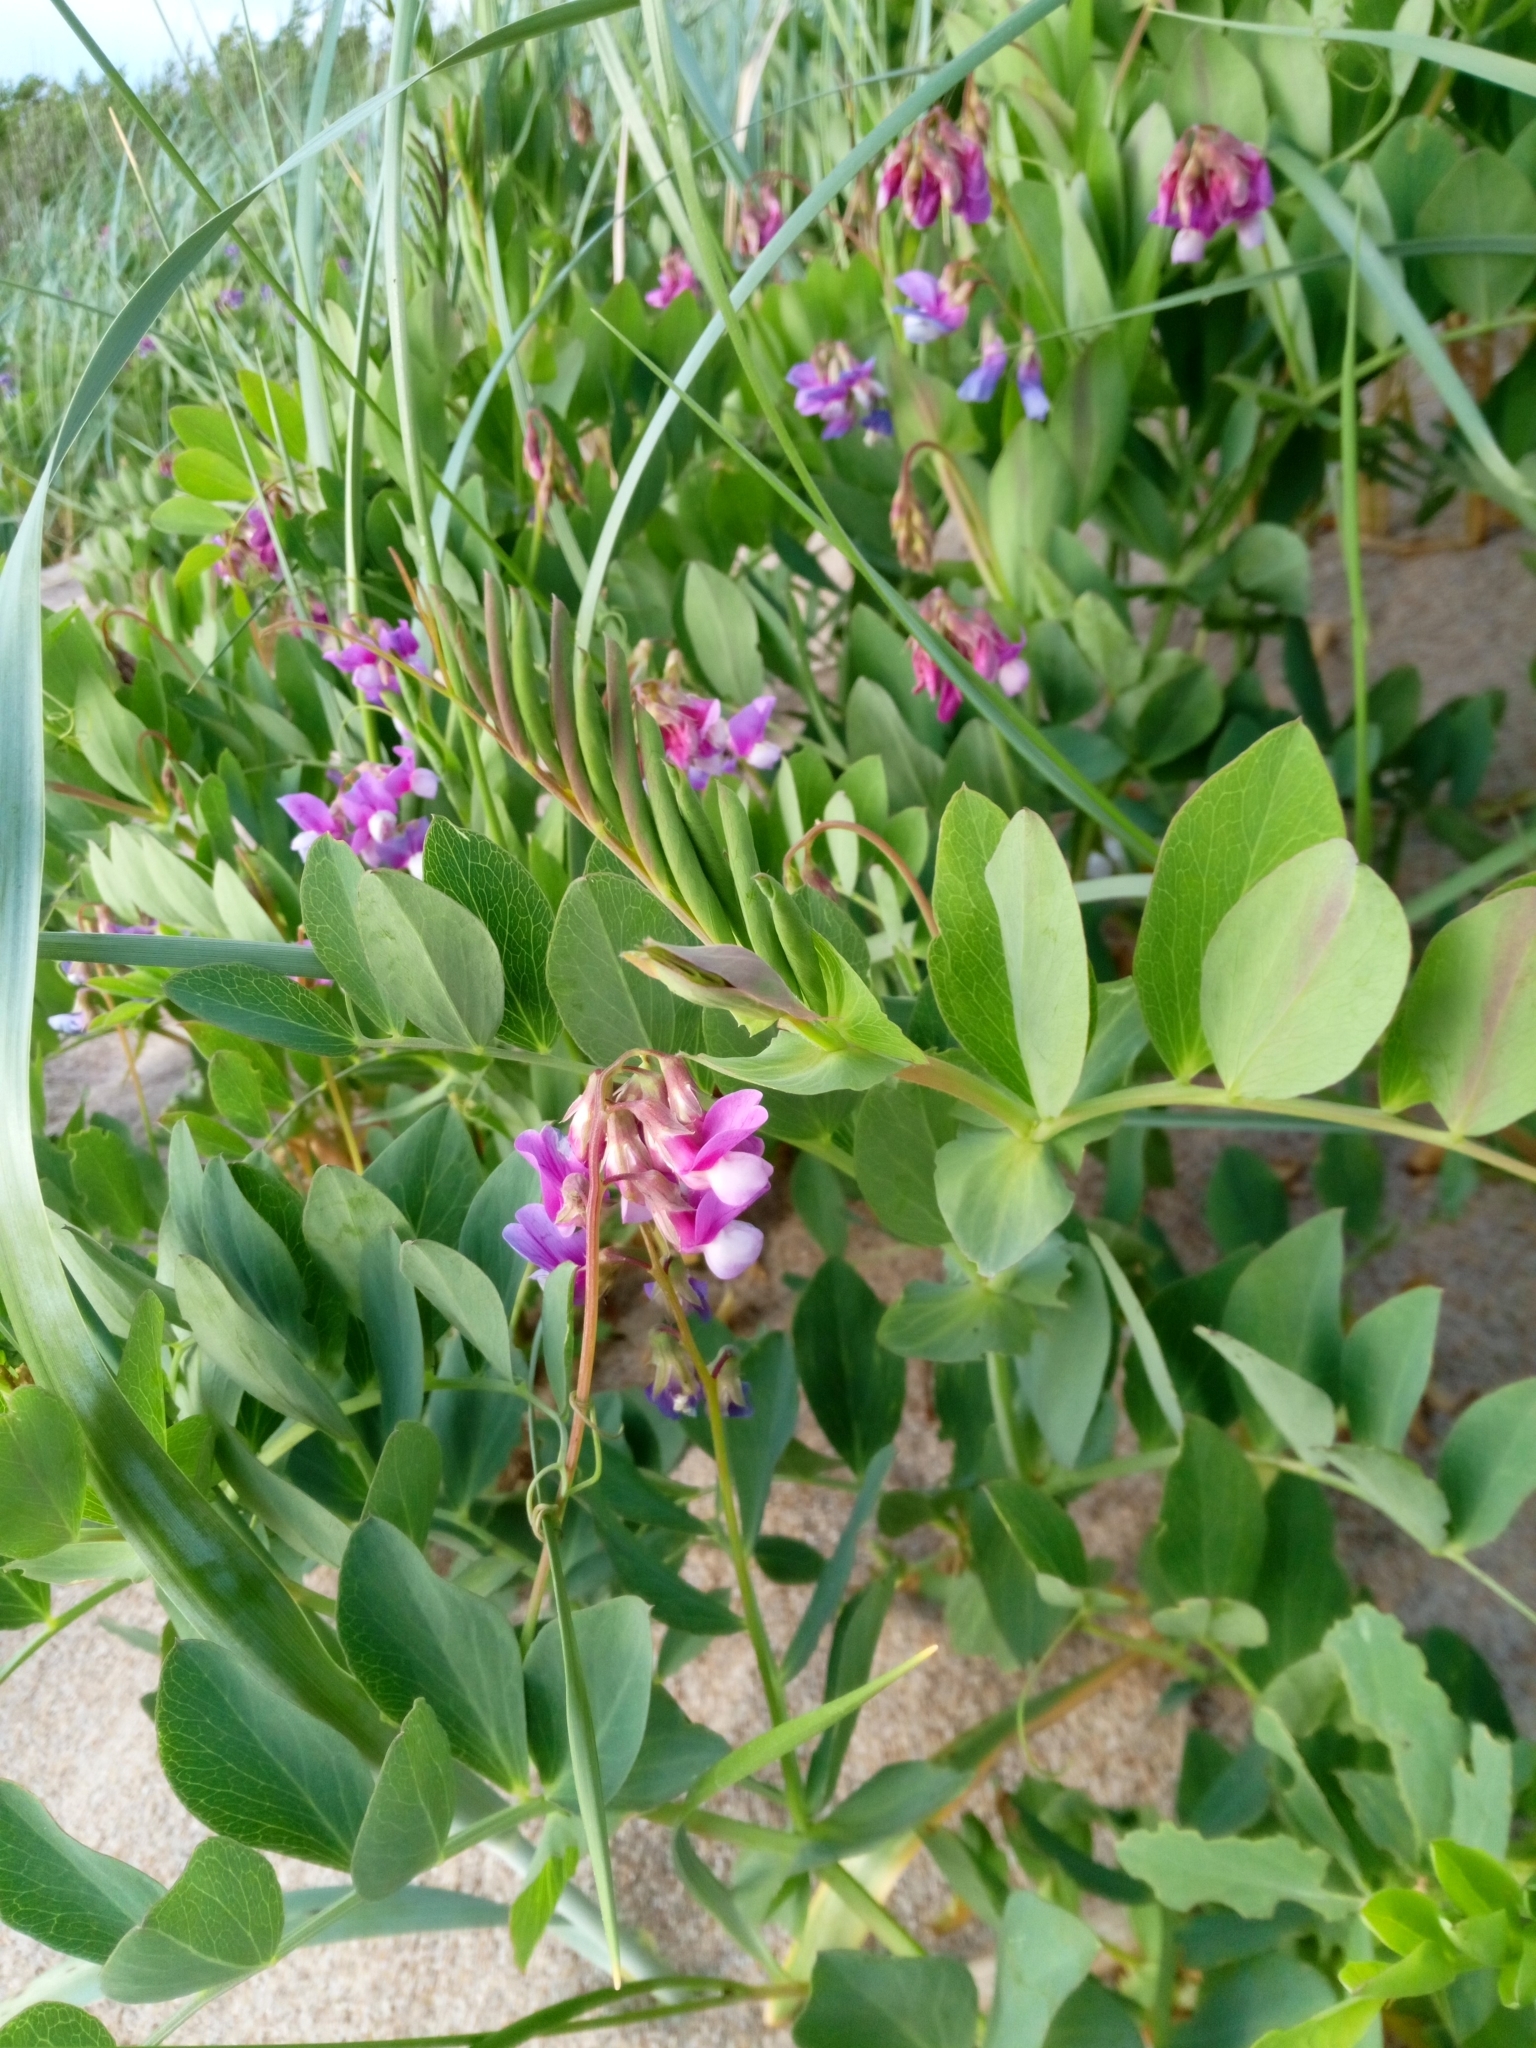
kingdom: Plantae
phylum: Tracheophyta
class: Magnoliopsida
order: Fabales
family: Fabaceae
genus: Lathyrus
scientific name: Lathyrus japonicus
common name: Sea pea
